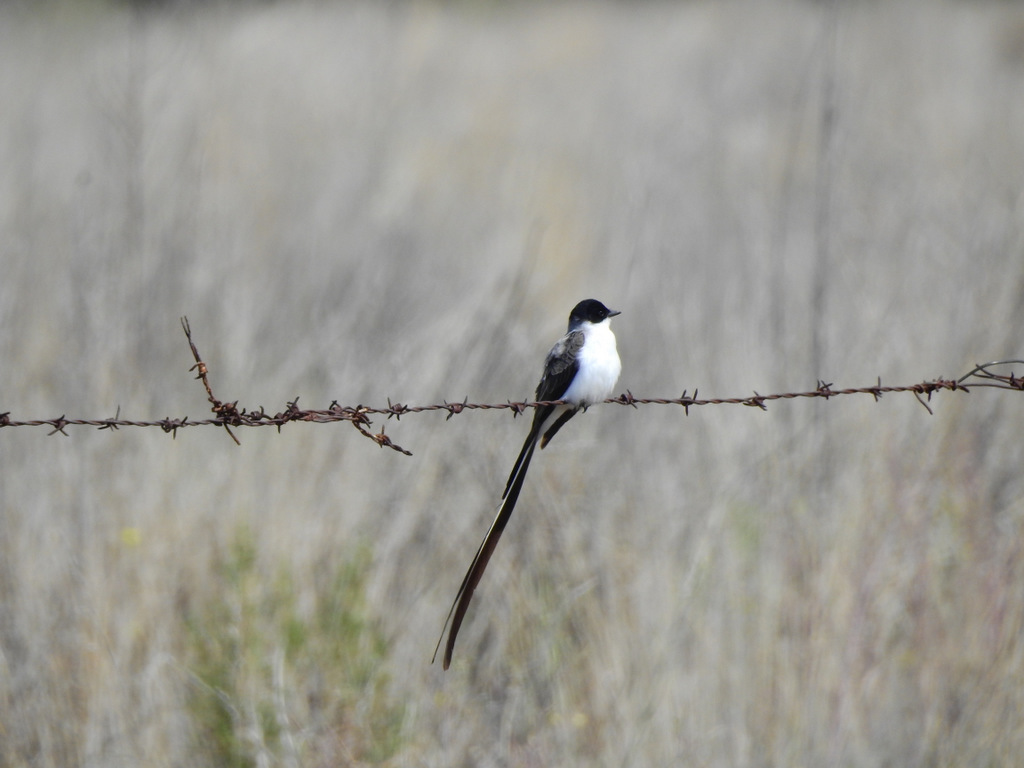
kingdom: Animalia
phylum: Chordata
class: Aves
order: Passeriformes
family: Tyrannidae
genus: Tyrannus
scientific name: Tyrannus savana
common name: Fork-tailed flycatcher
